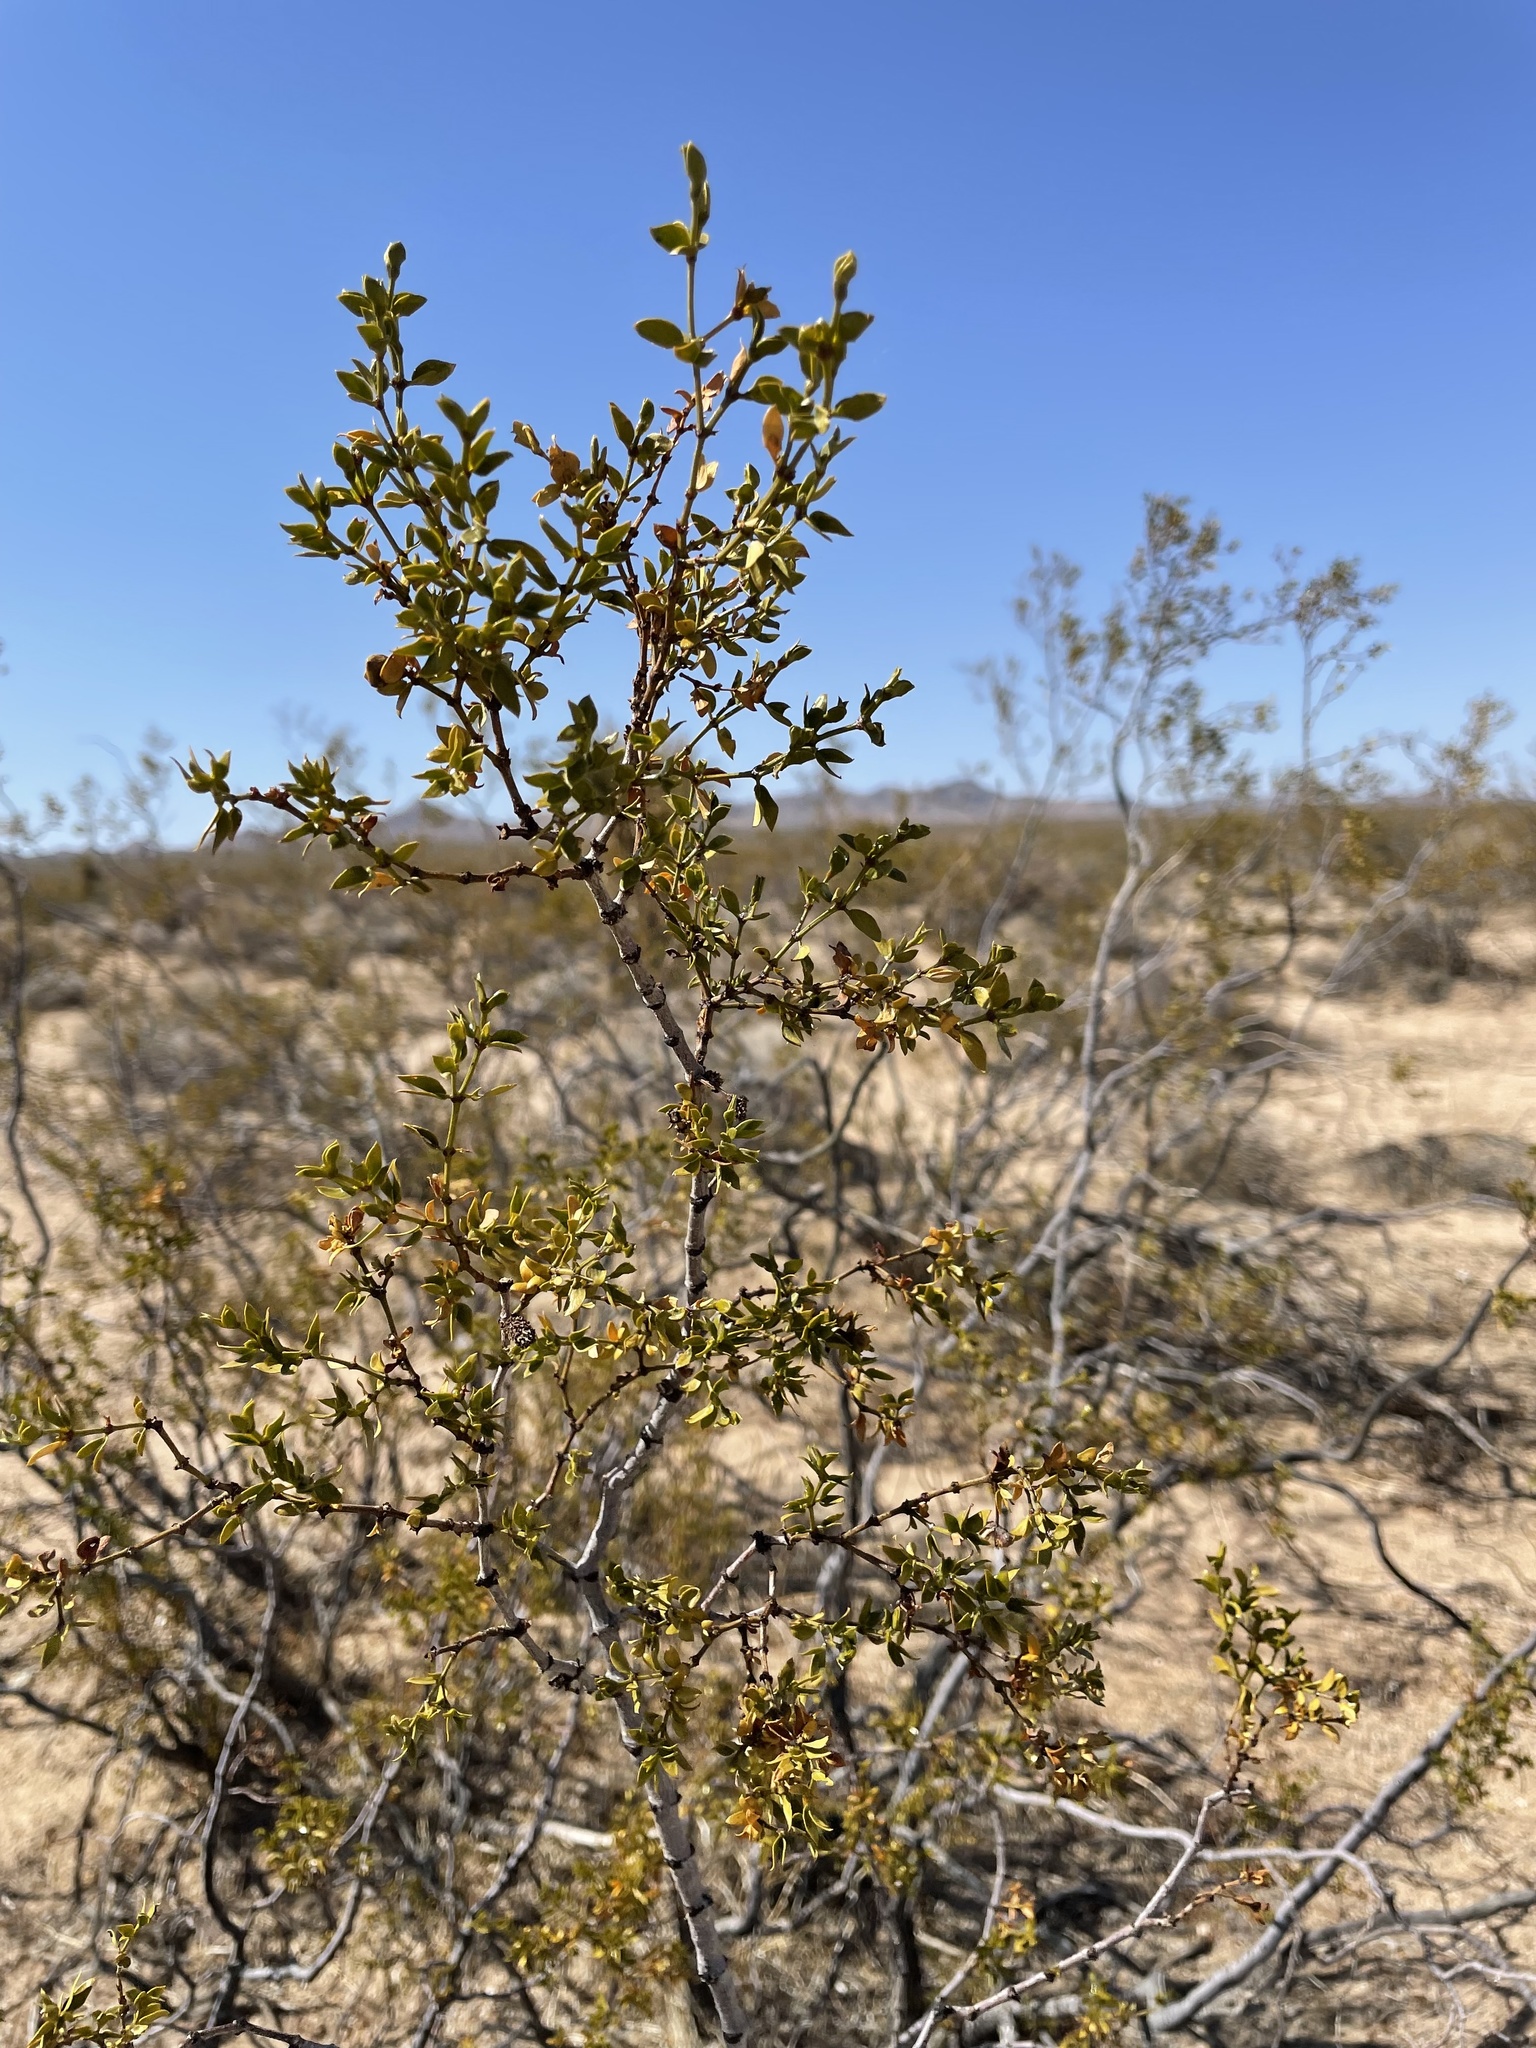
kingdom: Plantae
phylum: Tracheophyta
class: Magnoliopsida
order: Zygophyllales
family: Zygophyllaceae
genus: Larrea
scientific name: Larrea tridentata
